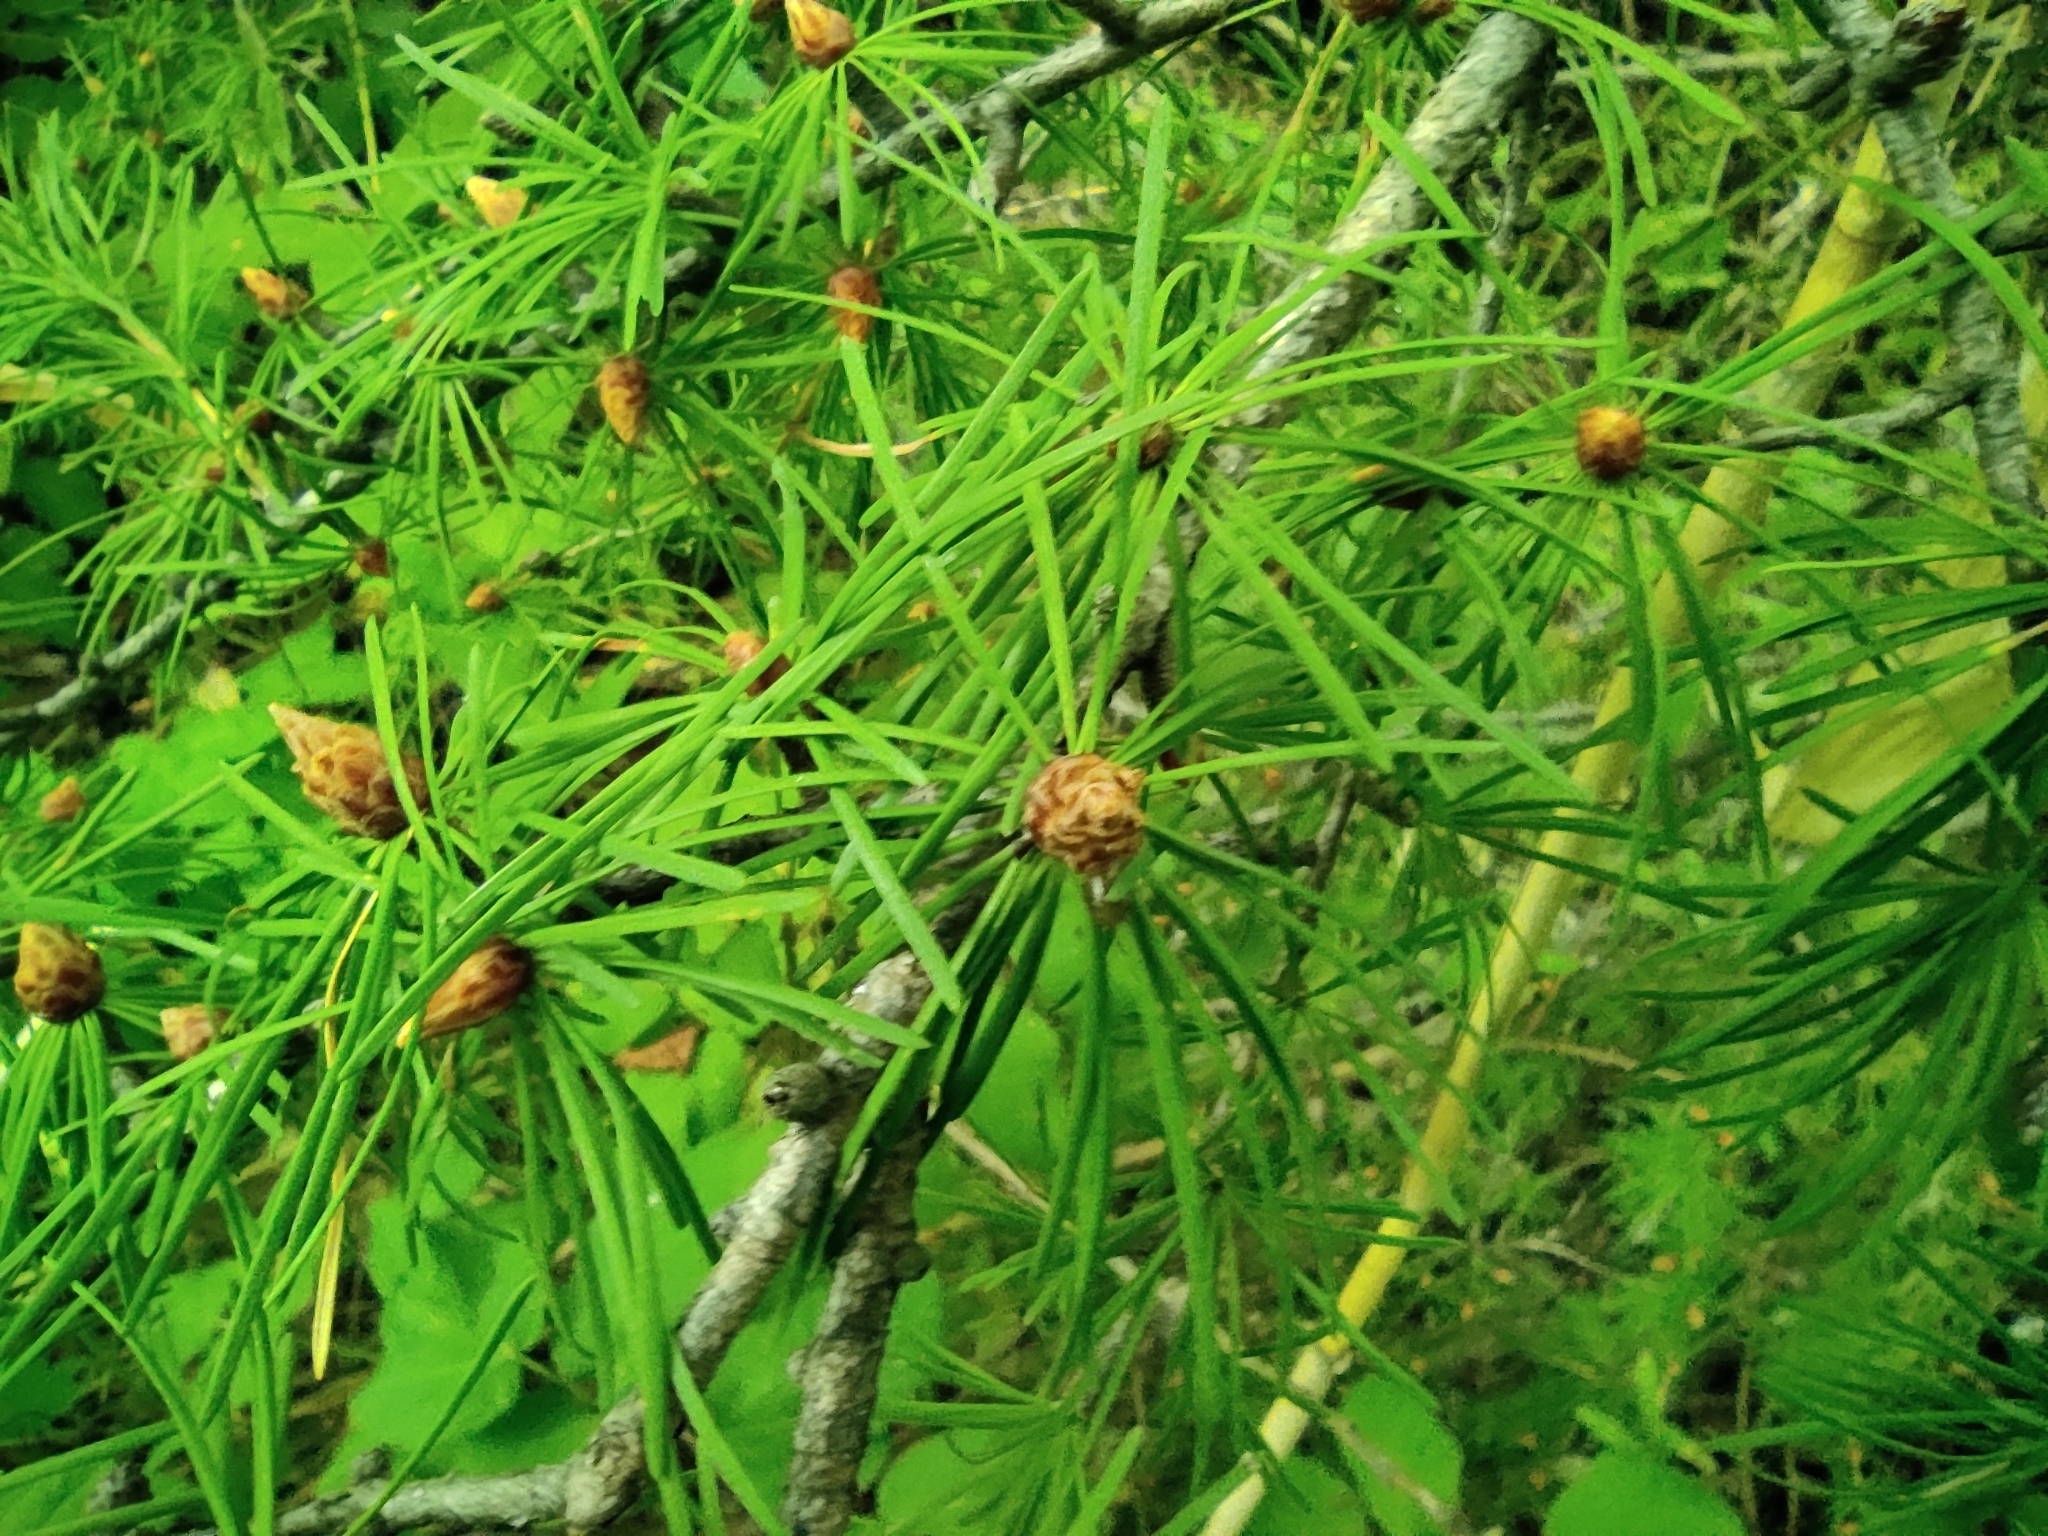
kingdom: Plantae
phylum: Tracheophyta
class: Pinopsida
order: Pinales
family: Pinaceae
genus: Larix
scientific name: Larix sibirica
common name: Siberian larch
